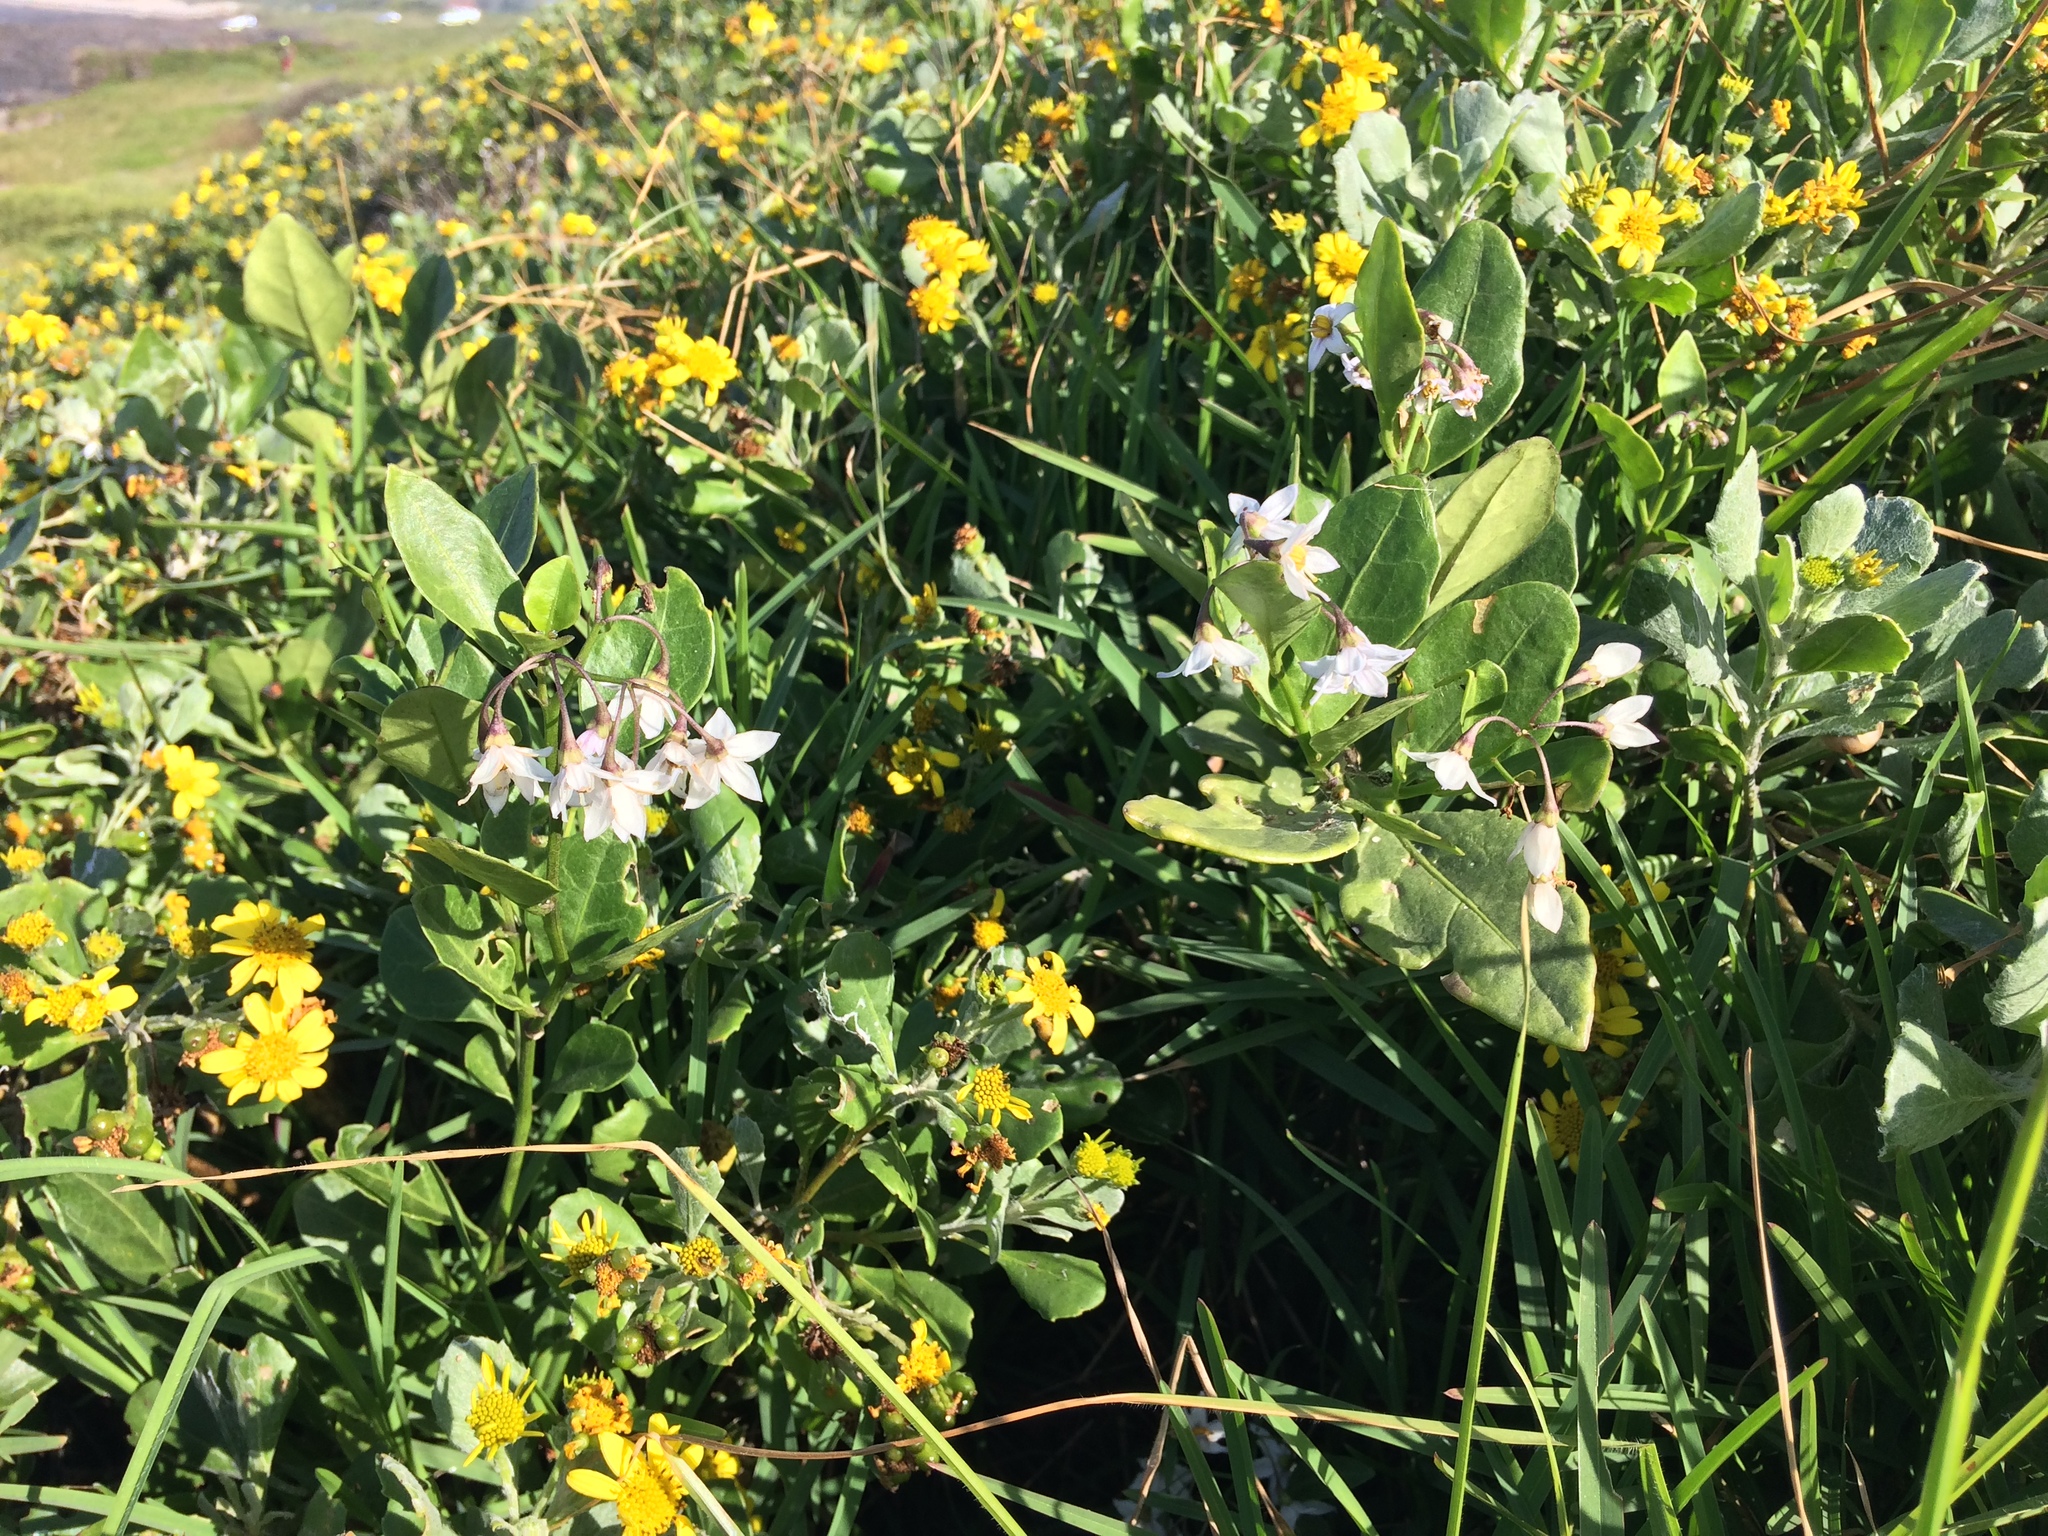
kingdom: Plantae
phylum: Tracheophyta
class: Magnoliopsida
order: Solanales
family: Solanaceae
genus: Solanum
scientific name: Solanum africanum
